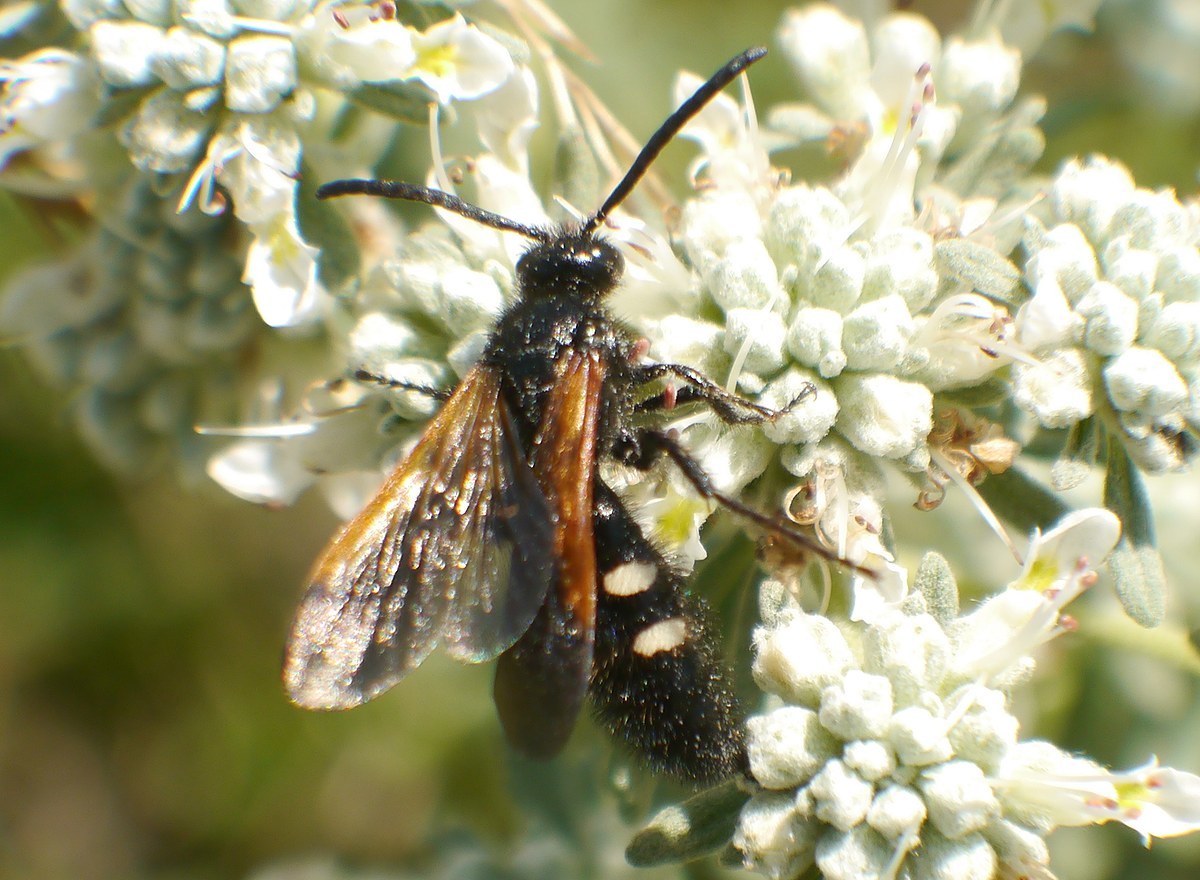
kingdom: Animalia
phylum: Arthropoda
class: Insecta
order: Hymenoptera
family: Vespidae
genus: Vespa
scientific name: Vespa sexmaculata
